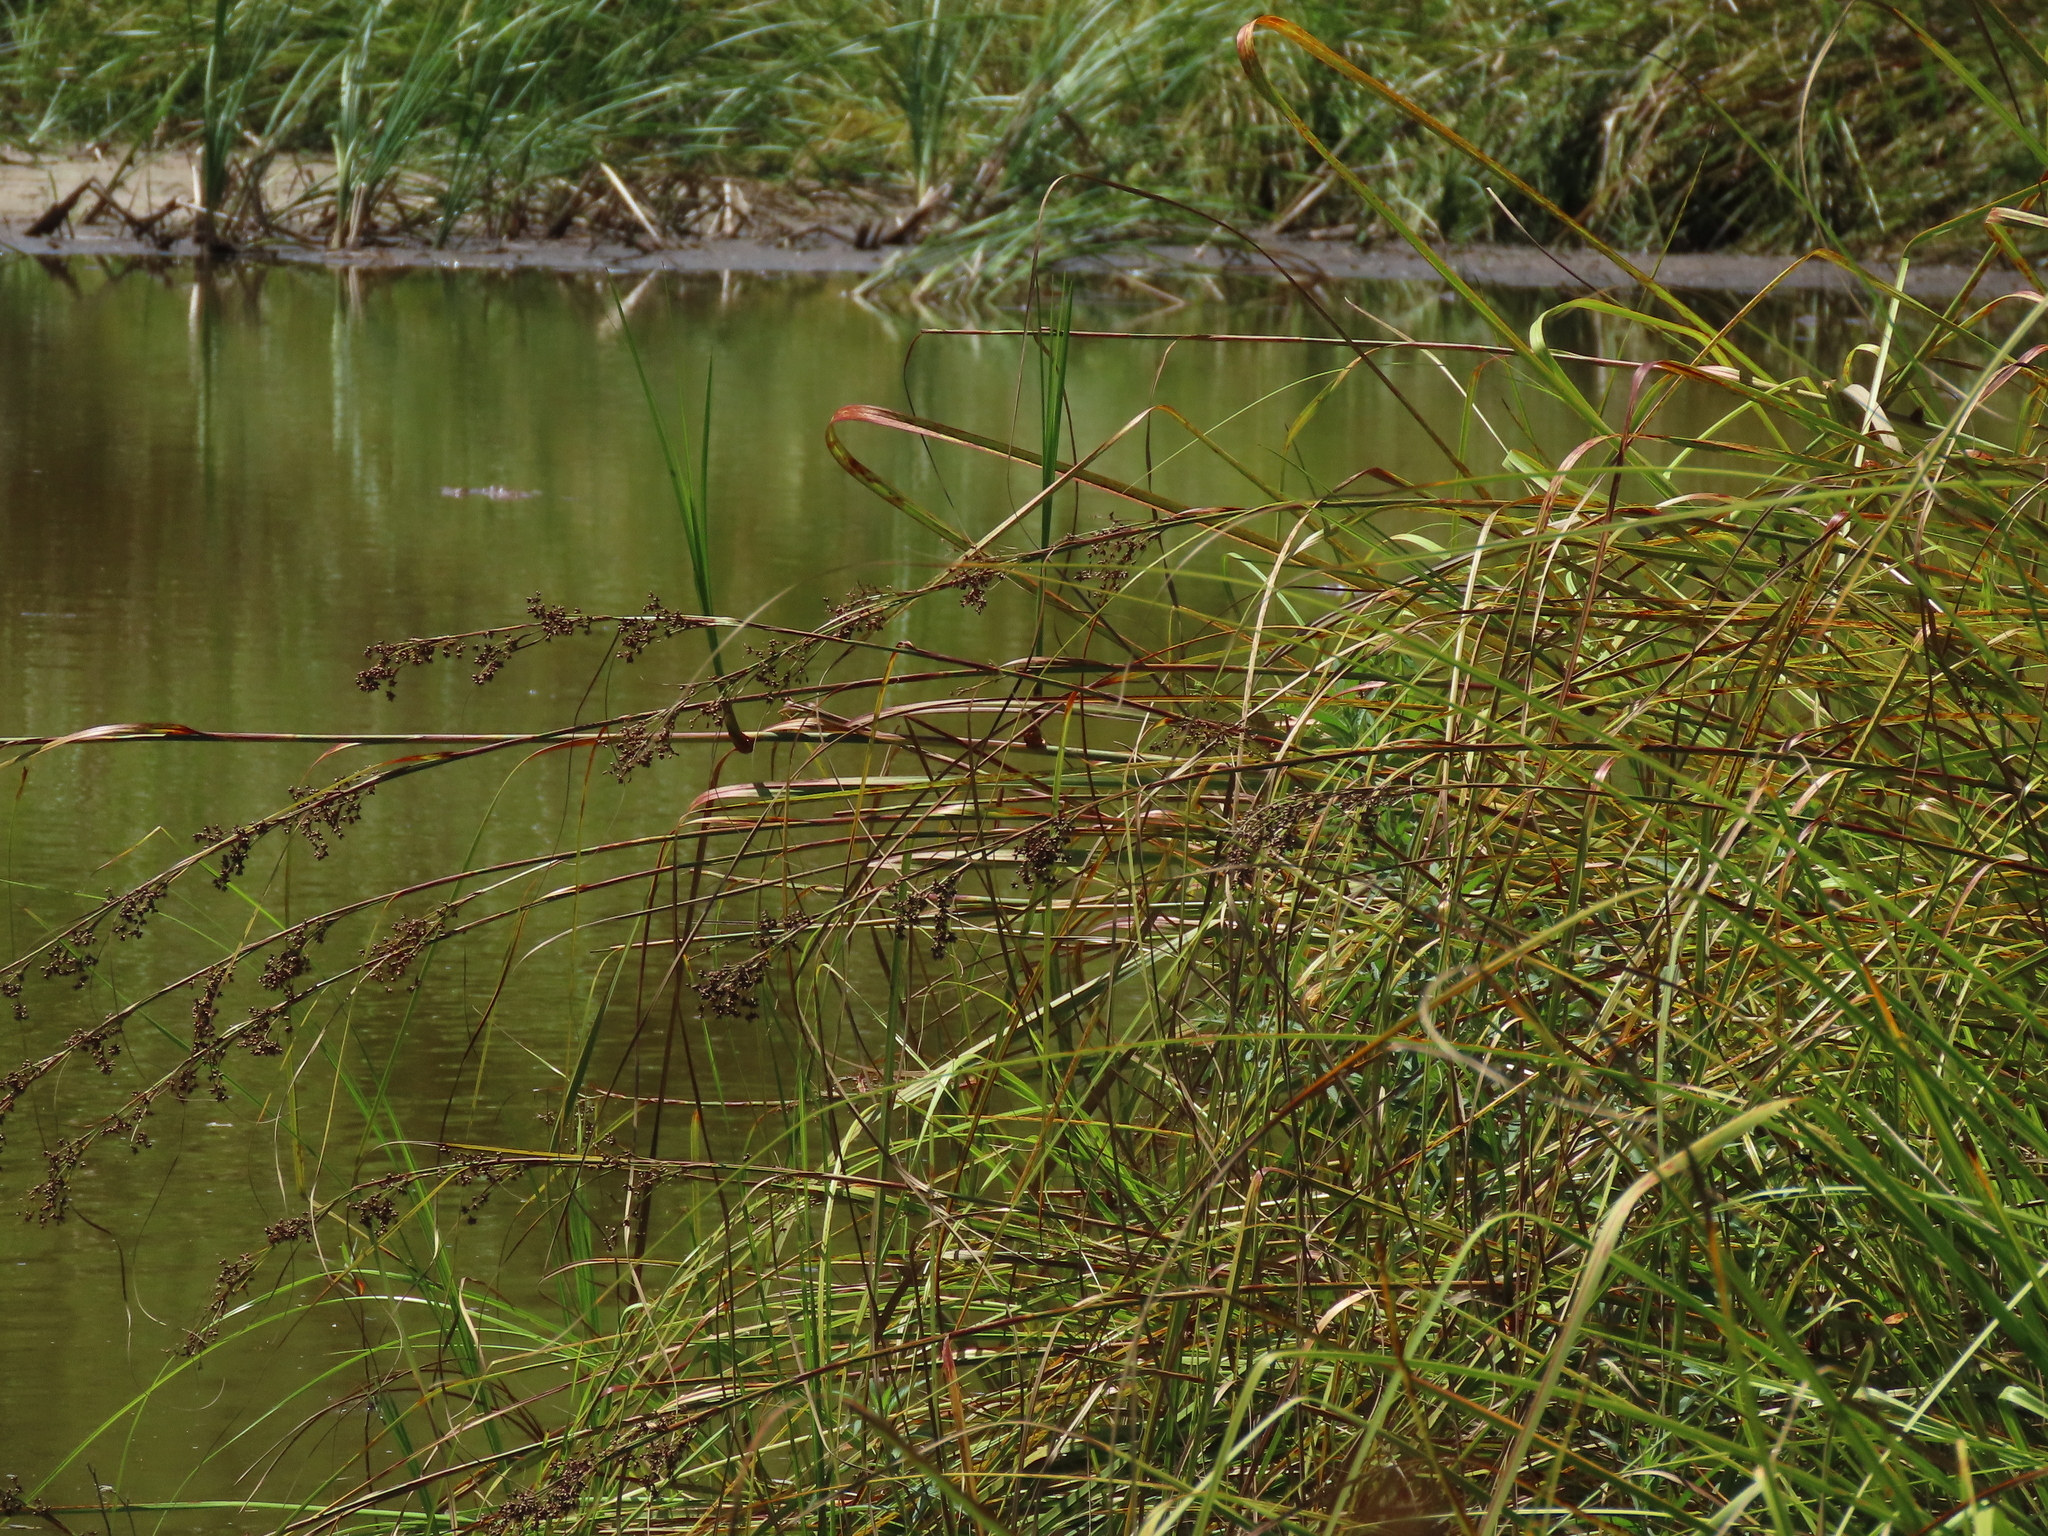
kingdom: Plantae
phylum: Tracheophyta
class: Liliopsida
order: Poales
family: Cyperaceae
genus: Cladium
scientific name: Cladium mariscus
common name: Great fen-sedge
